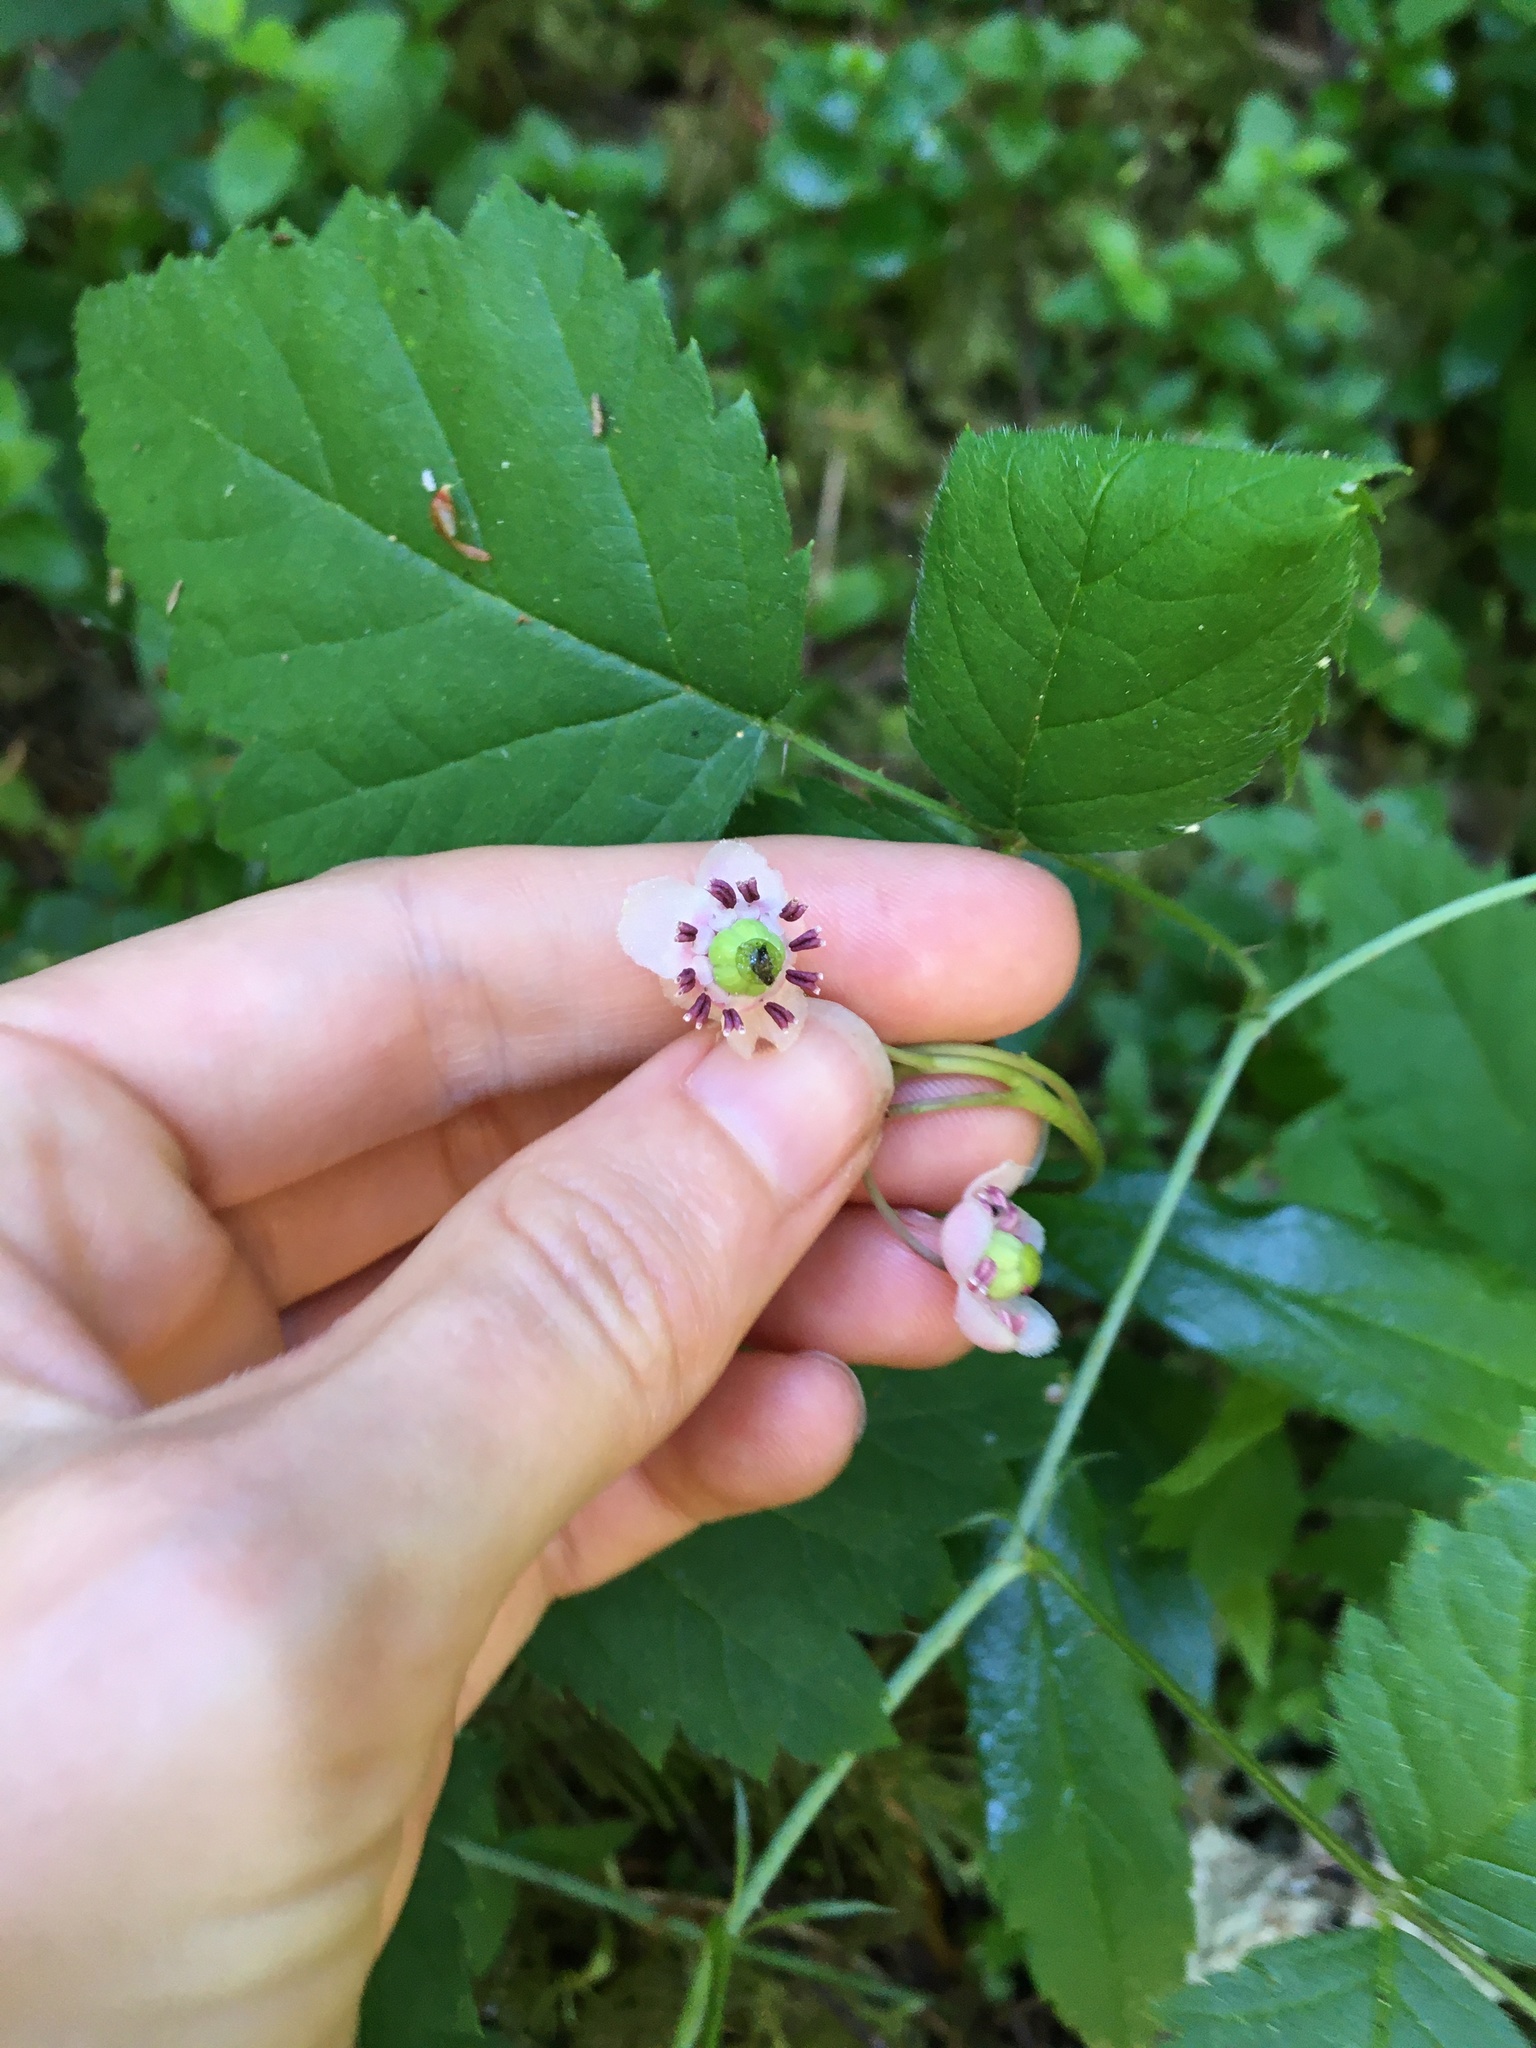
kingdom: Plantae
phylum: Tracheophyta
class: Magnoliopsida
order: Ericales
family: Ericaceae
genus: Chimaphila
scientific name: Chimaphila umbellata
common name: Pipsissewa
